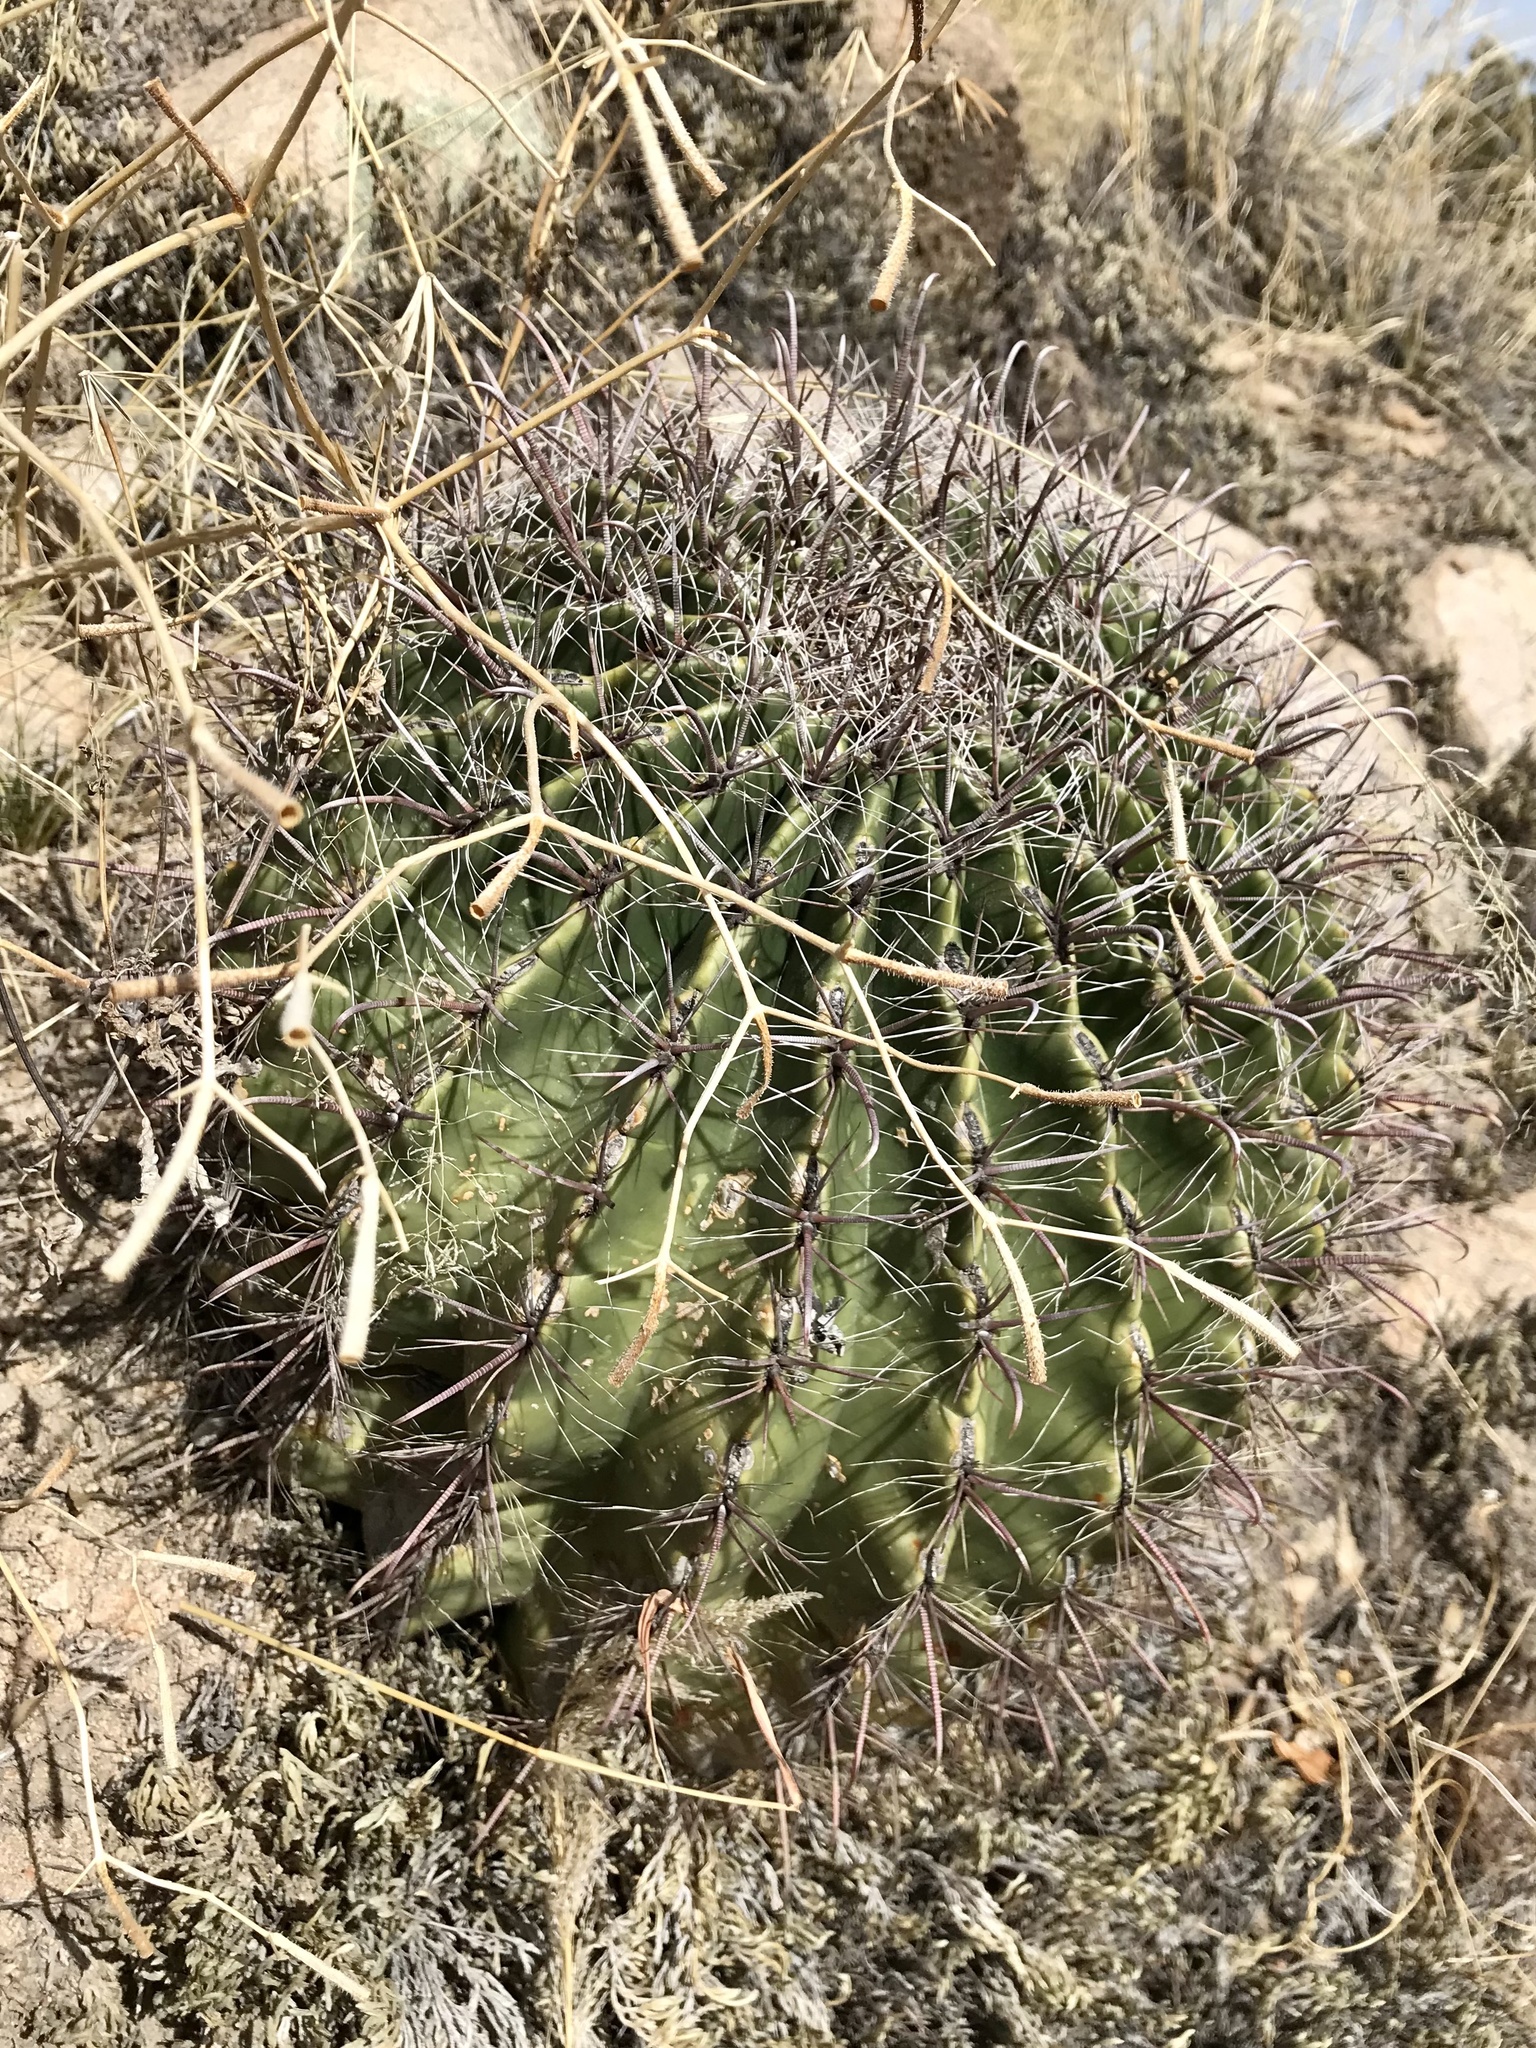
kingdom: Plantae
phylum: Tracheophyta
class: Magnoliopsida
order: Caryophyllales
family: Cactaceae
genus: Ferocactus
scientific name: Ferocactus wislizeni
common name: Candy barrel cactus
